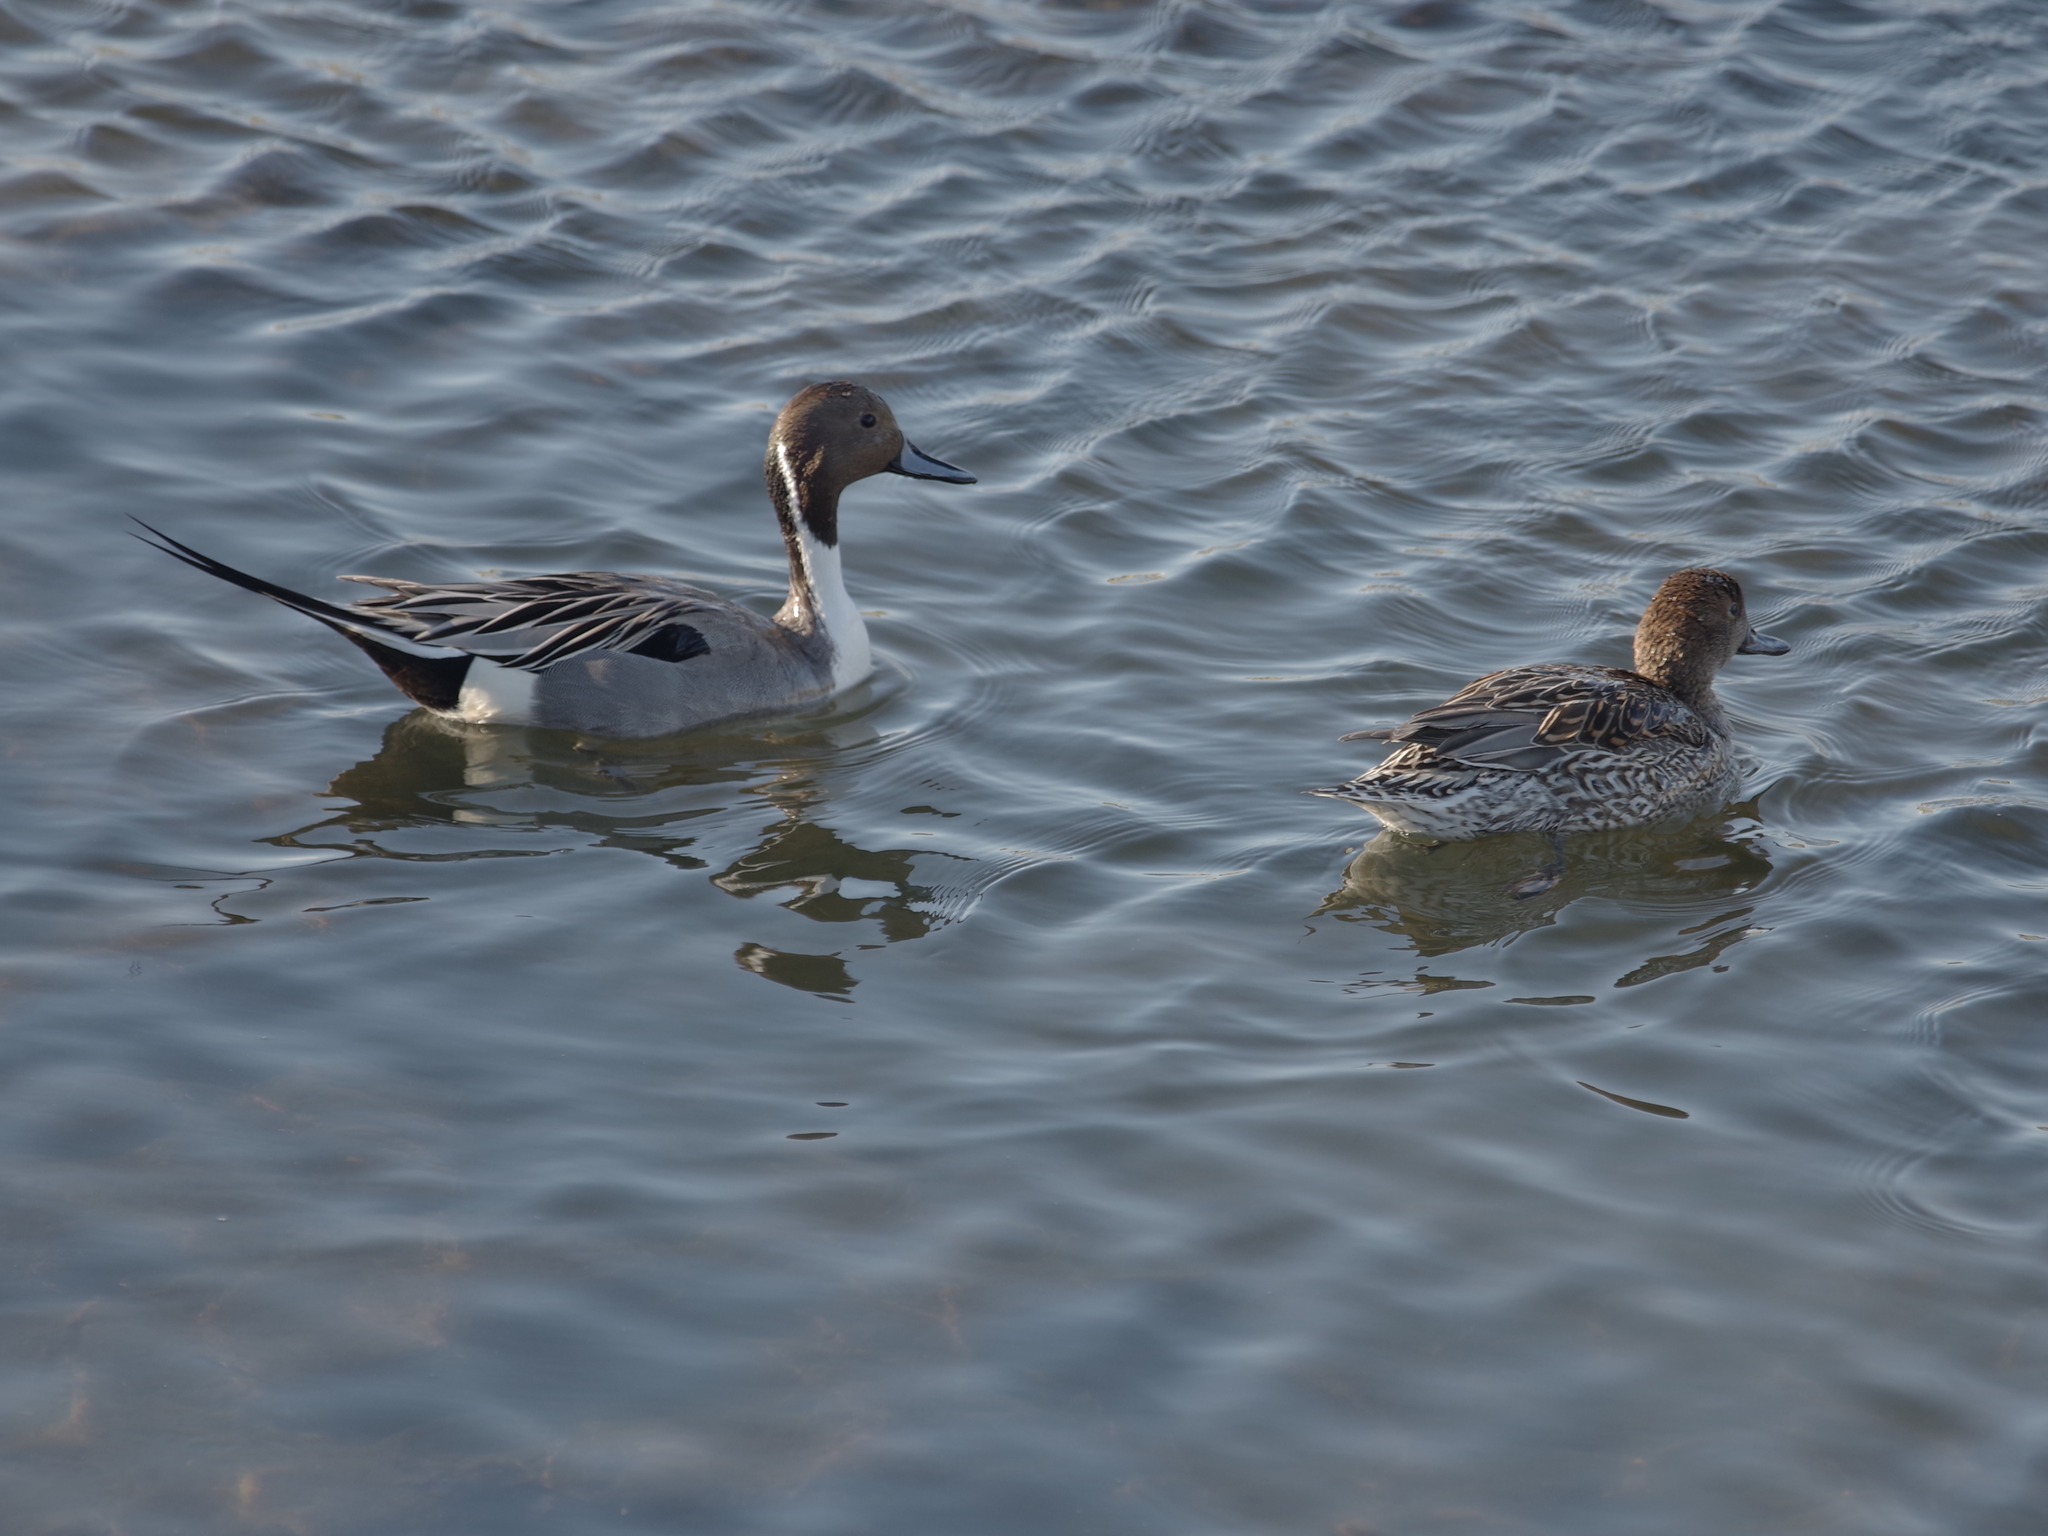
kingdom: Animalia
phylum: Chordata
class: Aves
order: Anseriformes
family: Anatidae
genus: Anas
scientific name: Anas acuta
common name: Northern pintail
